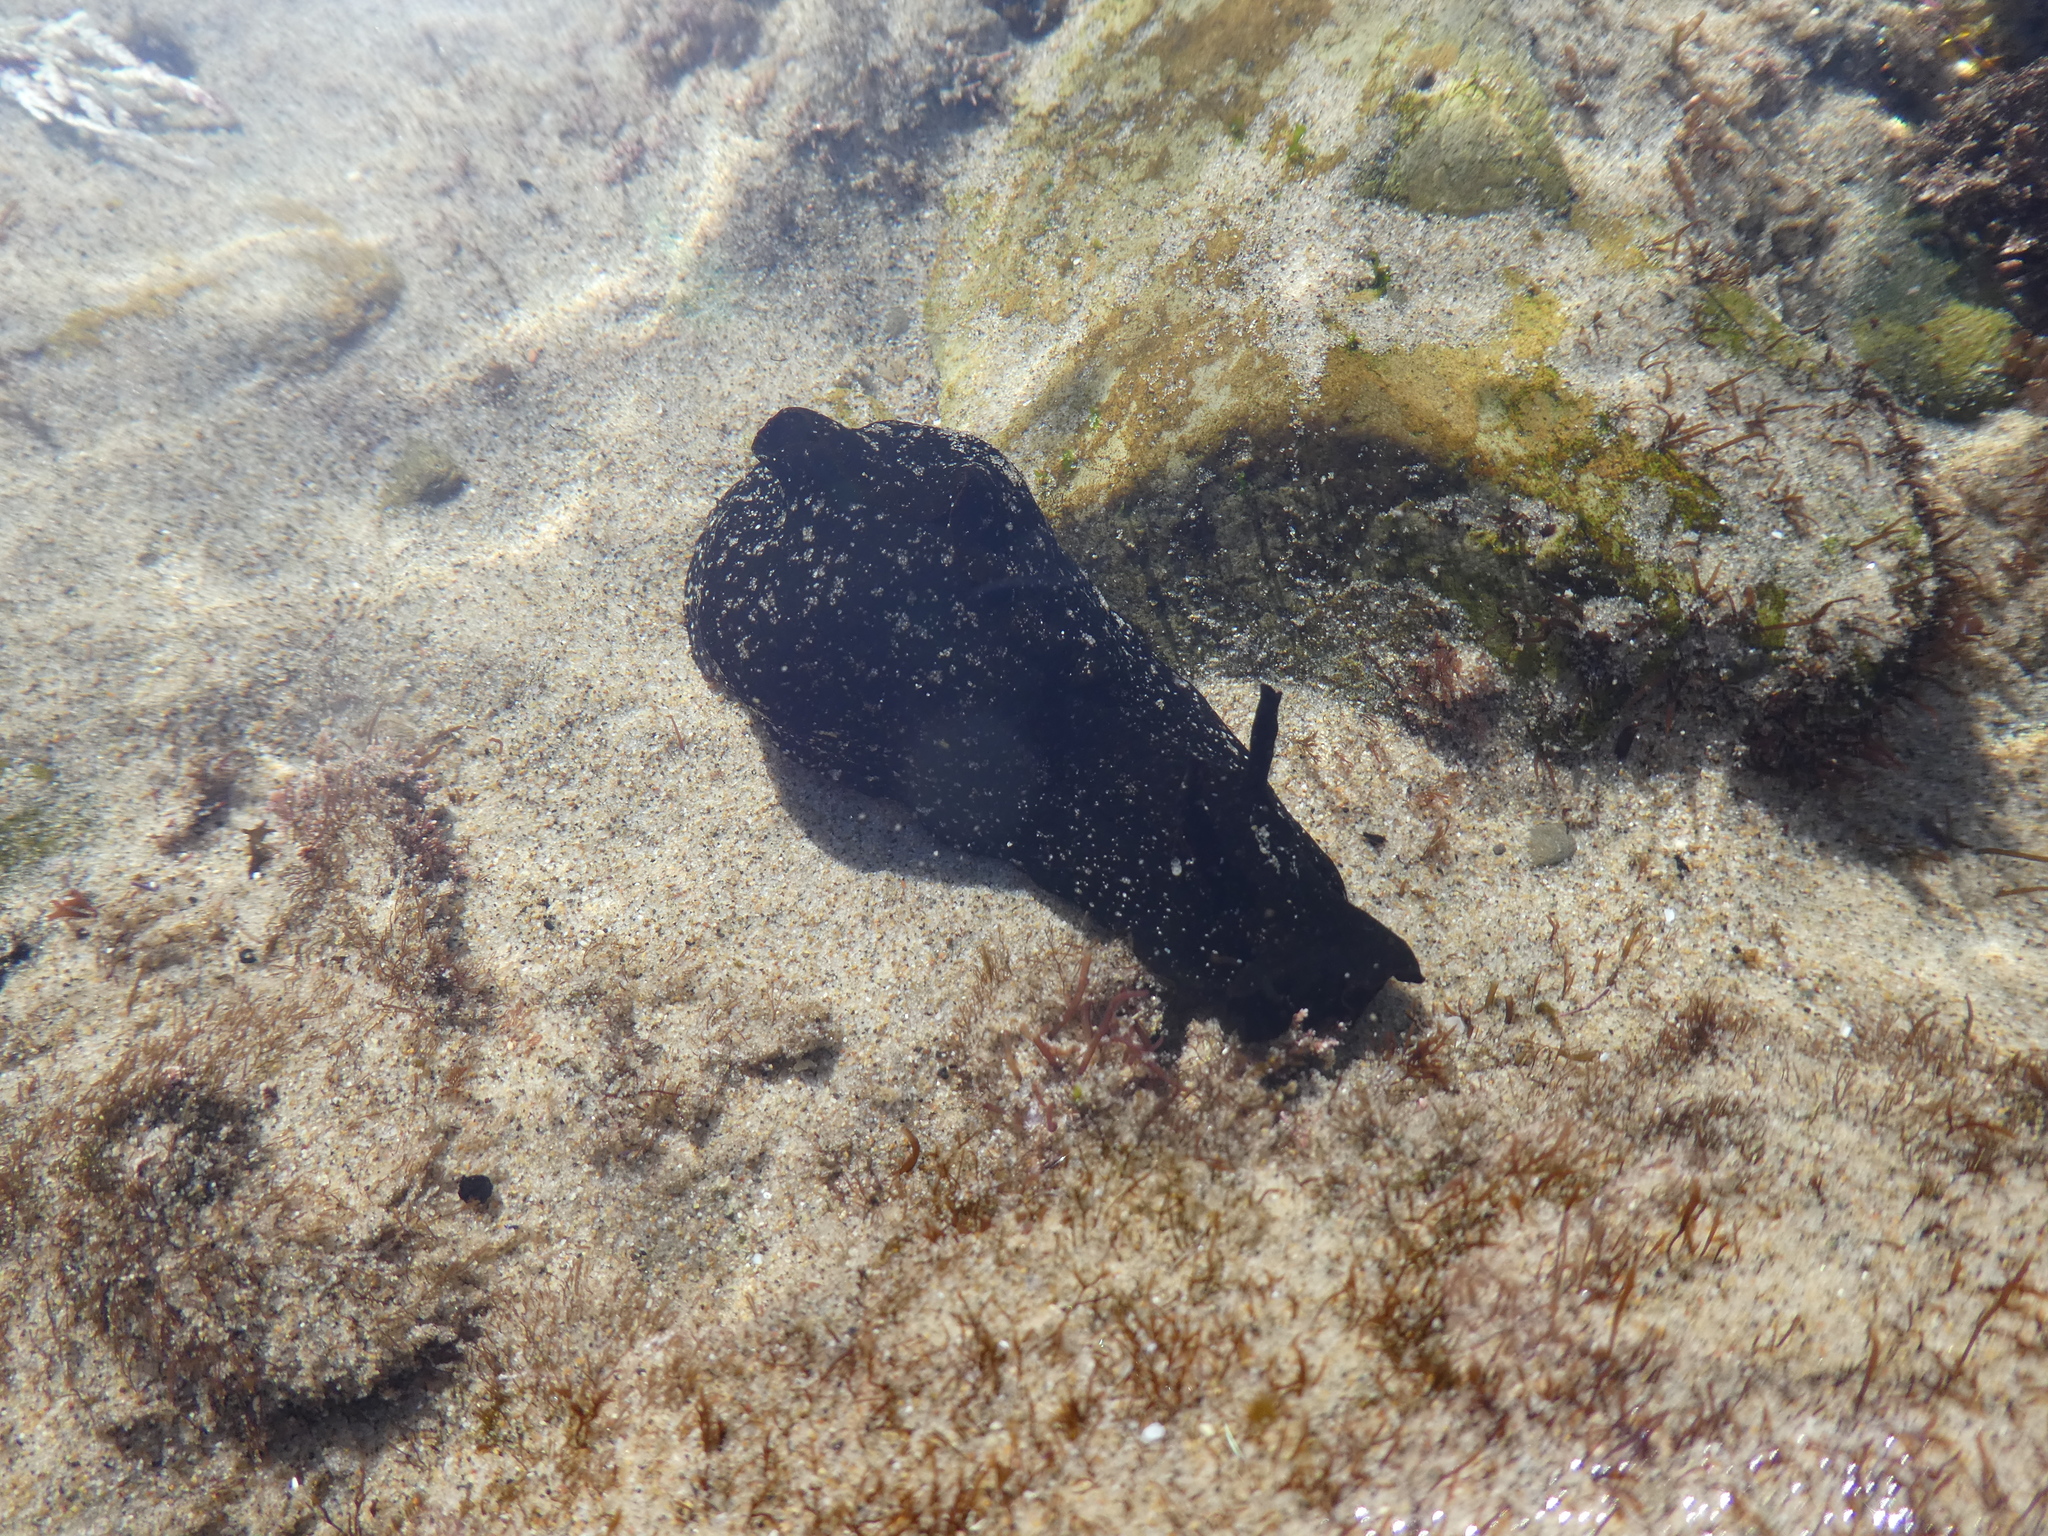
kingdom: Animalia
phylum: Mollusca
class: Gastropoda
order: Aplysiida
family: Aplysiidae
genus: Aplysia
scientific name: Aplysia vaccaria
